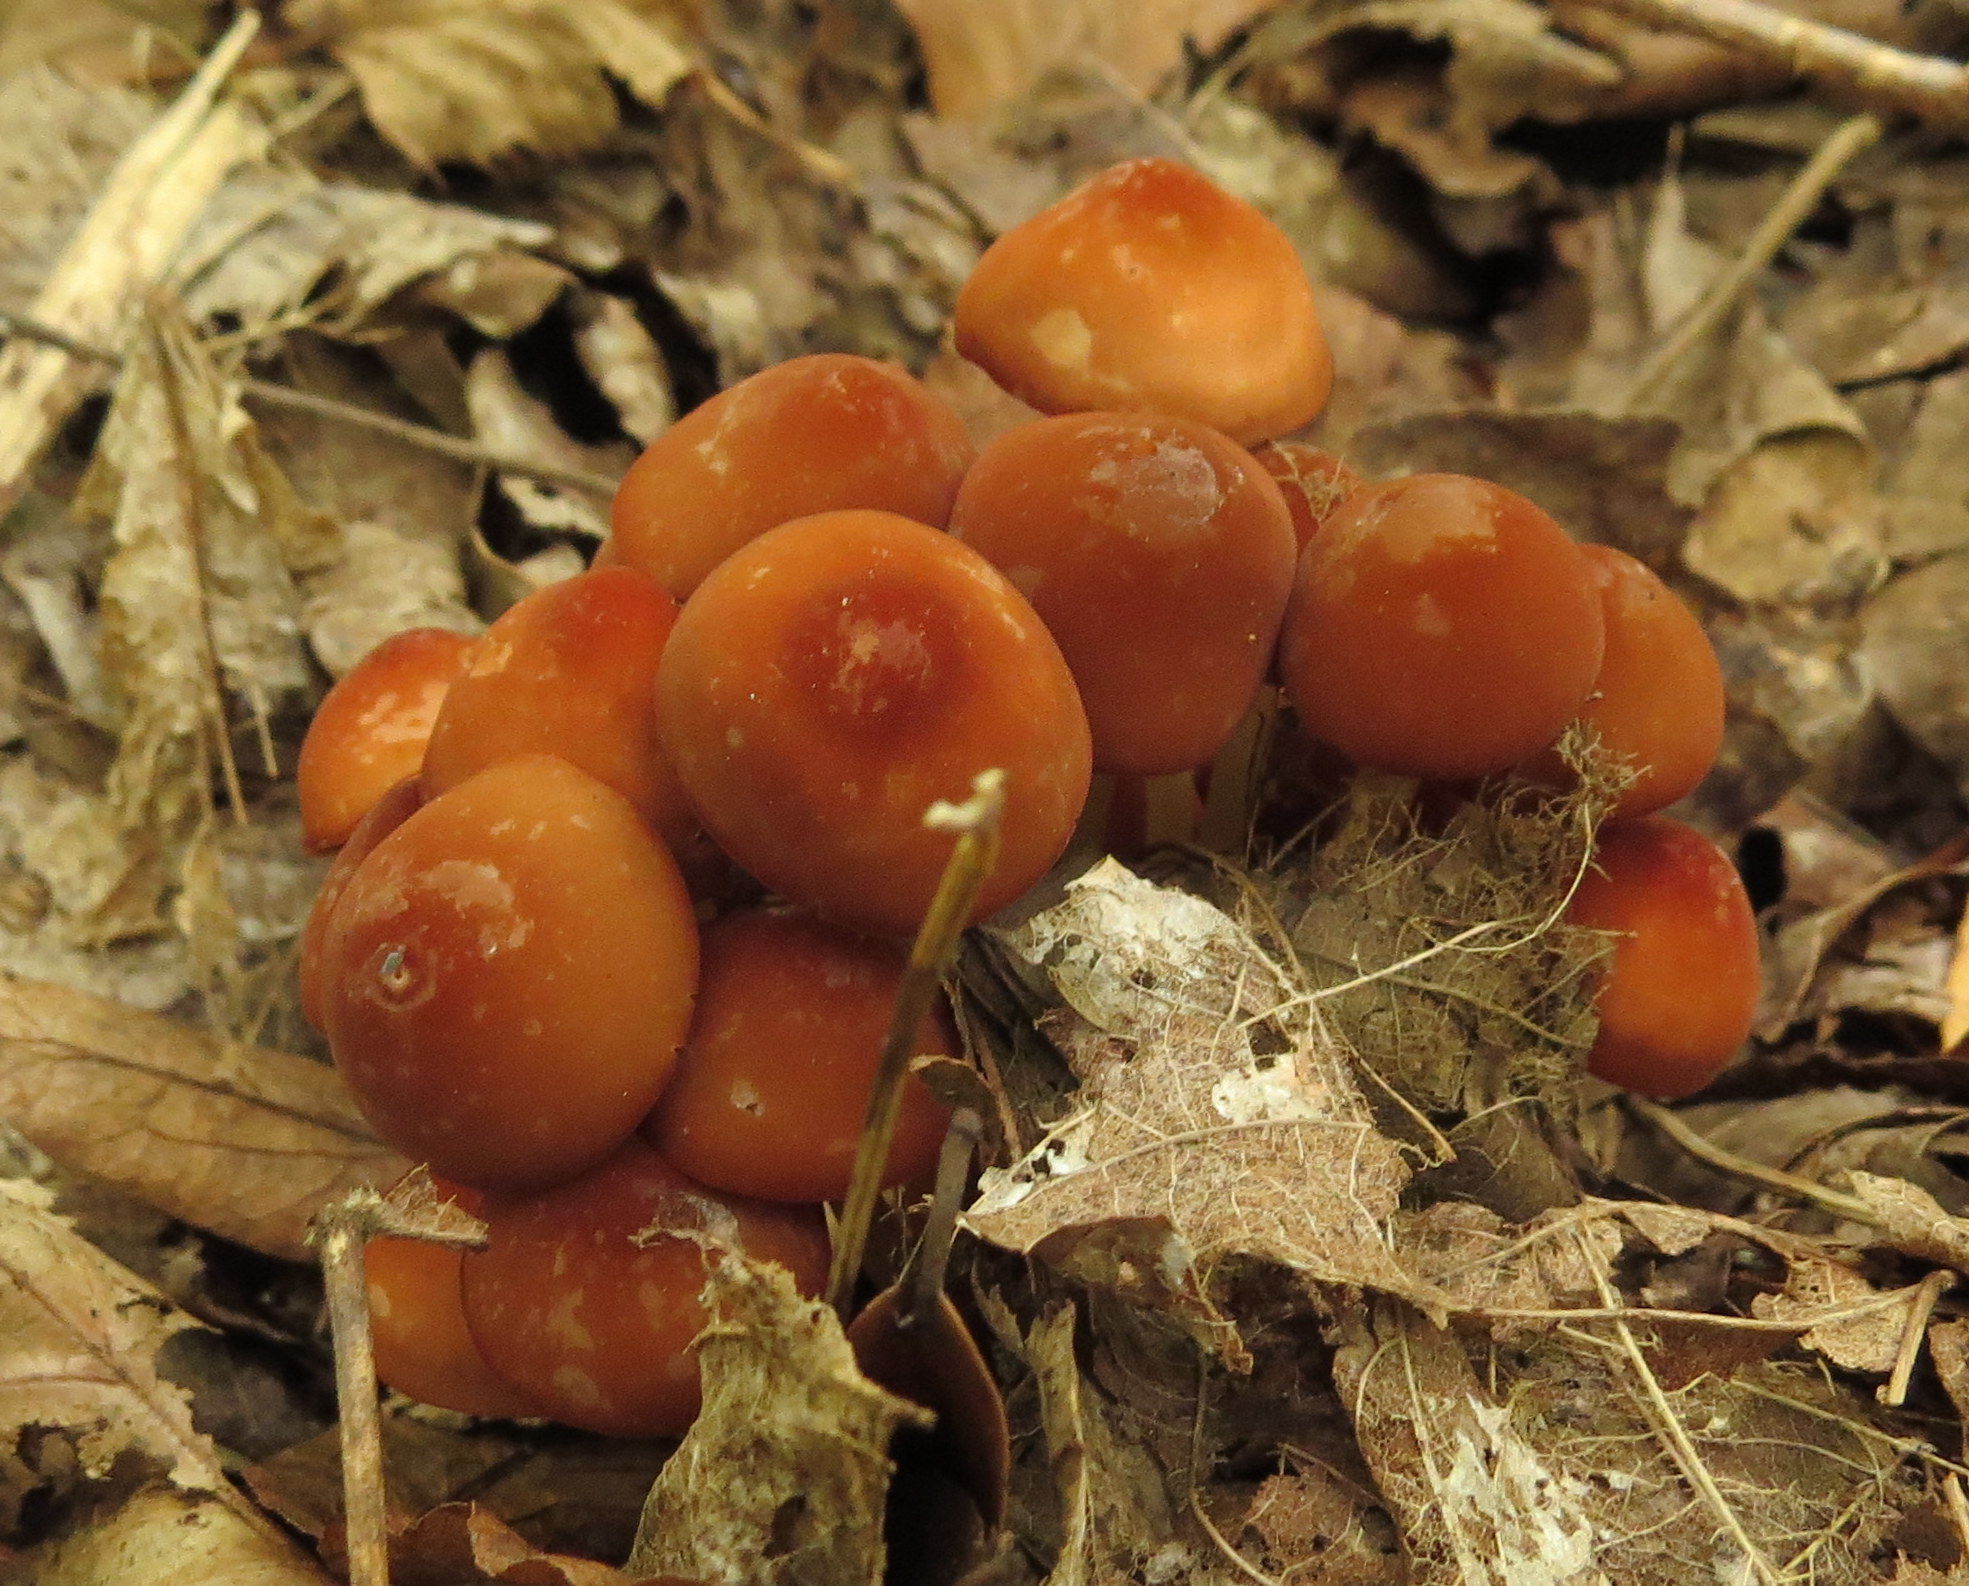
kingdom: Fungi
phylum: Basidiomycota
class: Agaricomycetes
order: Agaricales
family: Physalacriaceae
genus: Flammulina
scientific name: Flammulina velutipes
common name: Velvet shank
